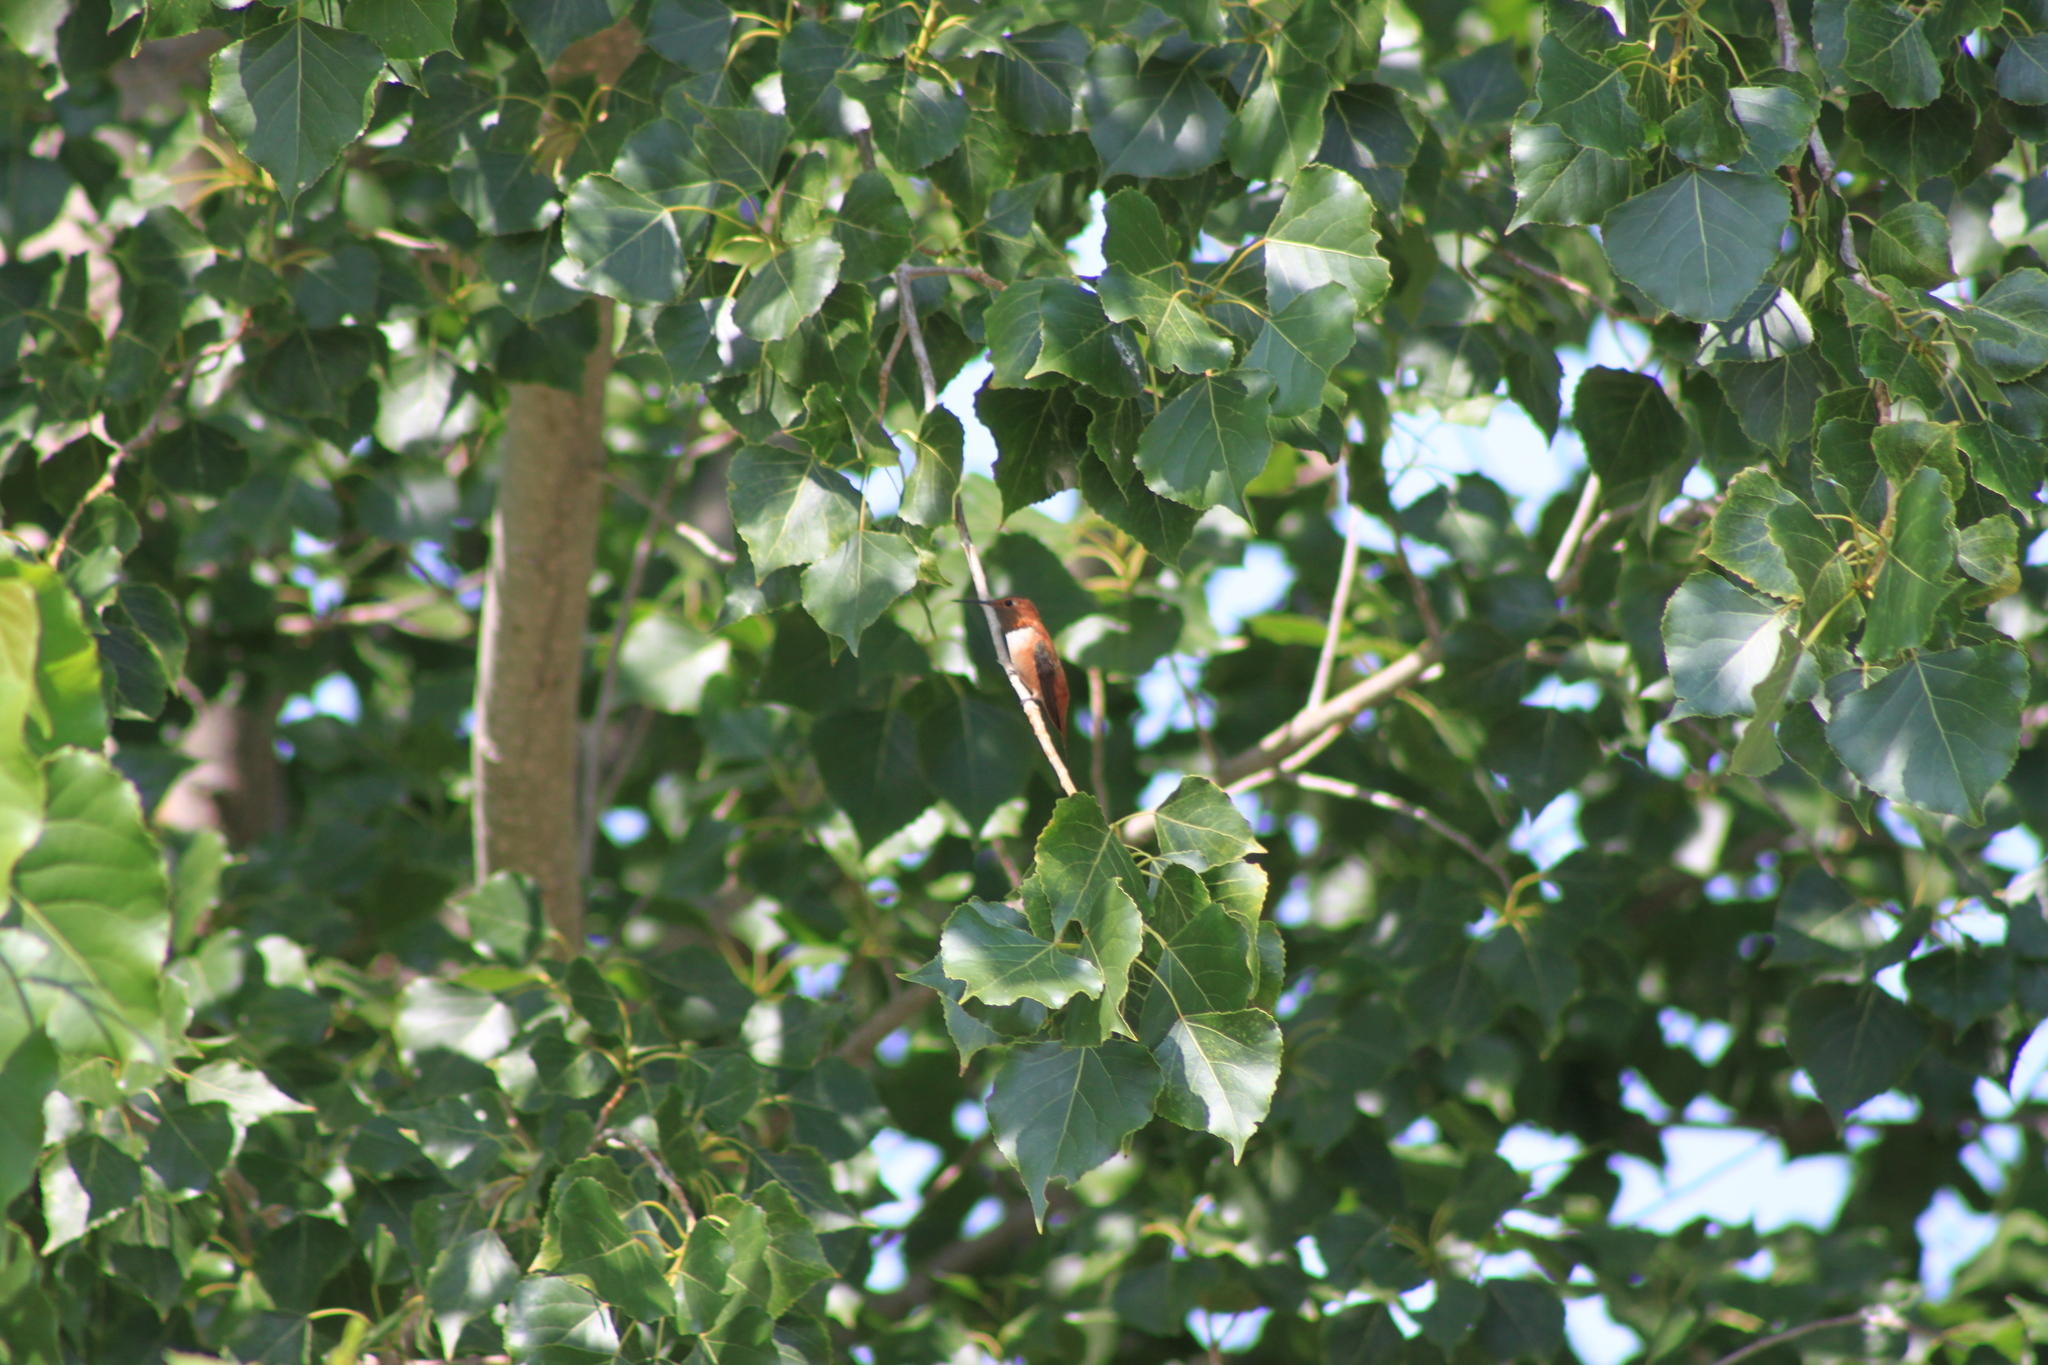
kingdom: Animalia
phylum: Chordata
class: Aves
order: Apodiformes
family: Trochilidae
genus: Selasphorus
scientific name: Selasphorus rufus
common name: Rufous hummingbird
